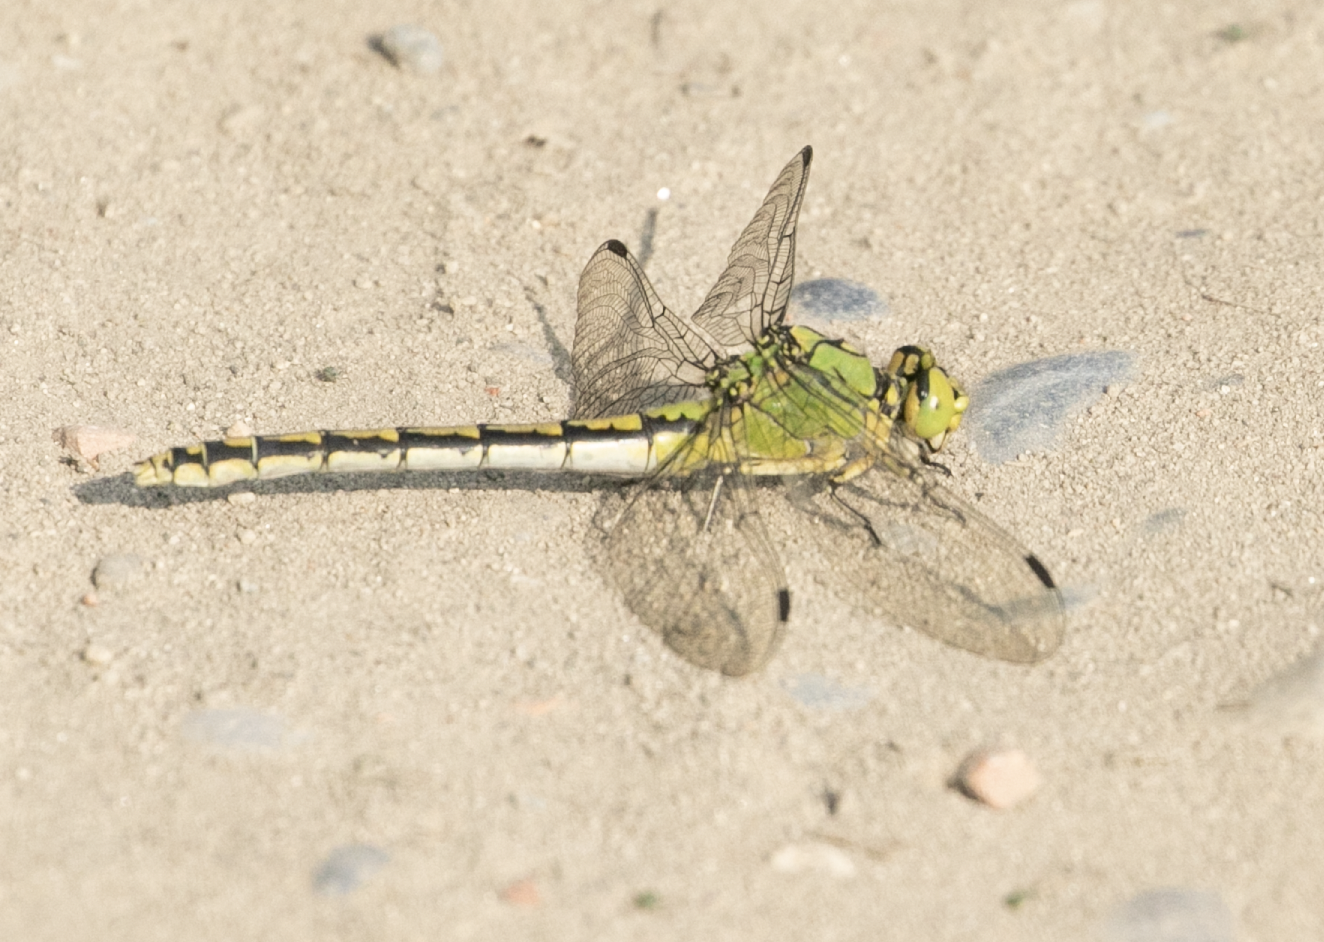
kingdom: Animalia
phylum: Arthropoda
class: Insecta
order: Odonata
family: Gomphidae
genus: Ophiogomphus
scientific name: Ophiogomphus cecilia
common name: Green snaketail
